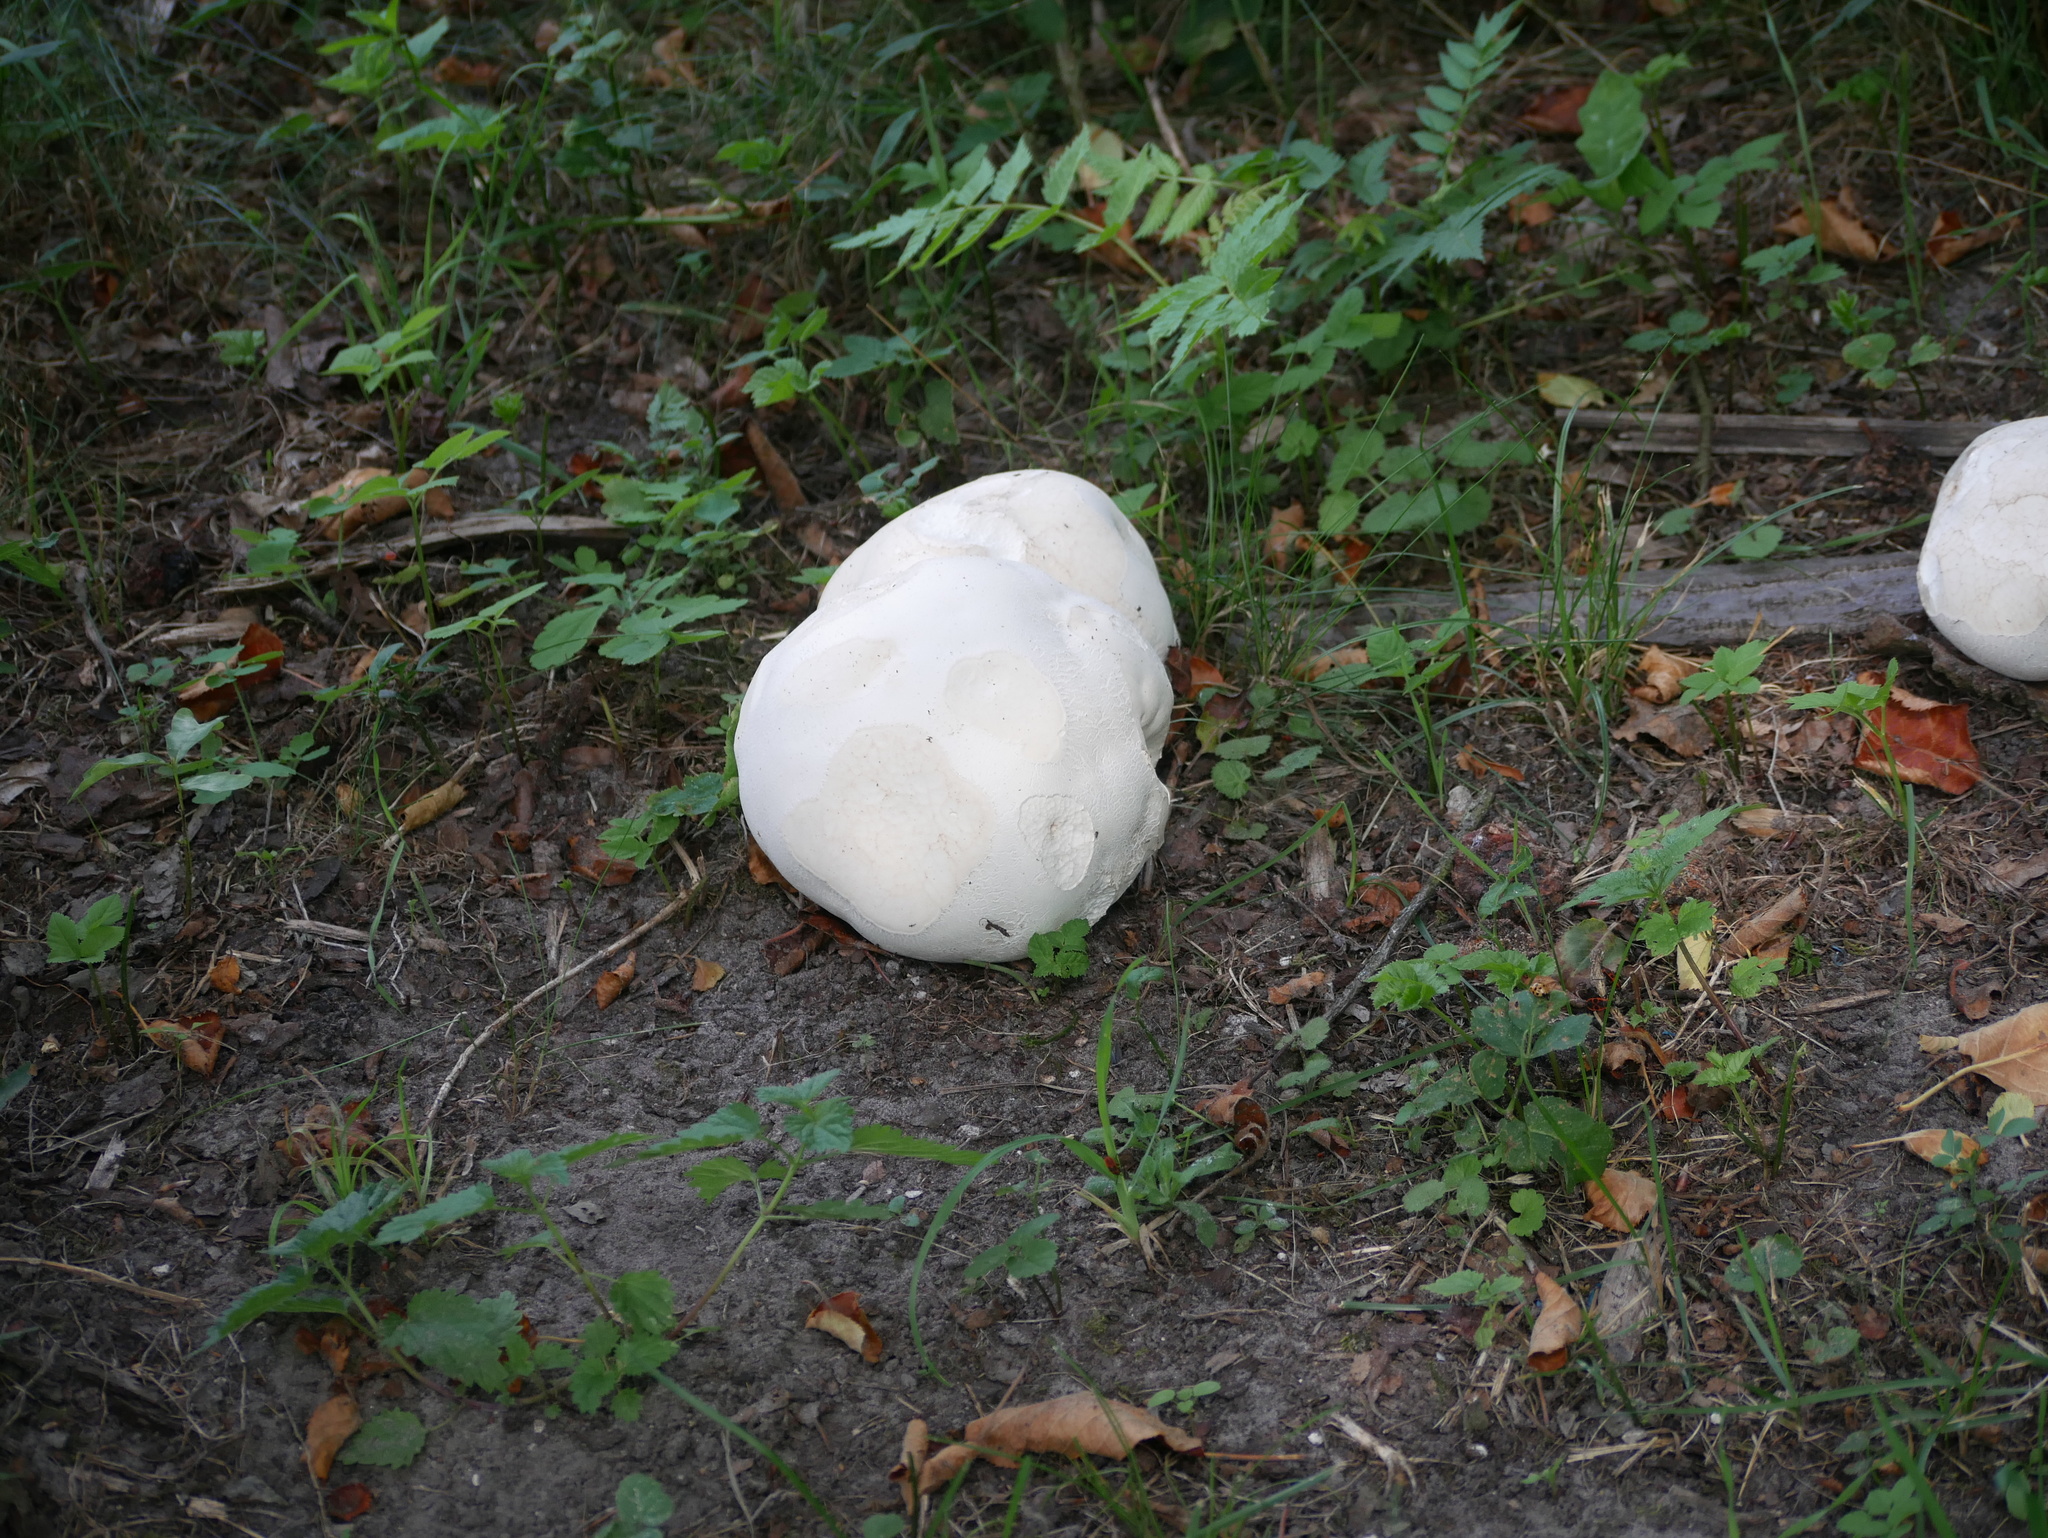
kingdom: Fungi
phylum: Basidiomycota
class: Agaricomycetes
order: Agaricales
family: Lycoperdaceae
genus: Calvatia
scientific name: Calvatia gigantea
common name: Giant puffball
